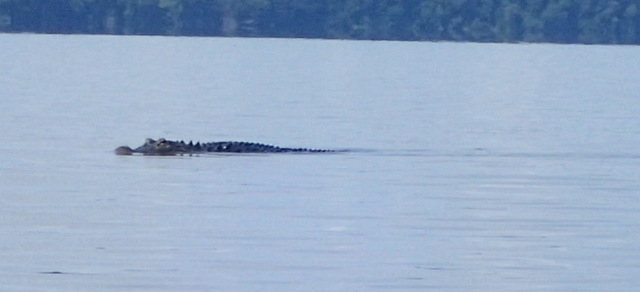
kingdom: Animalia
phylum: Chordata
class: Crocodylia
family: Alligatoridae
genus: Alligator
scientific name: Alligator mississippiensis
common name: American alligator
